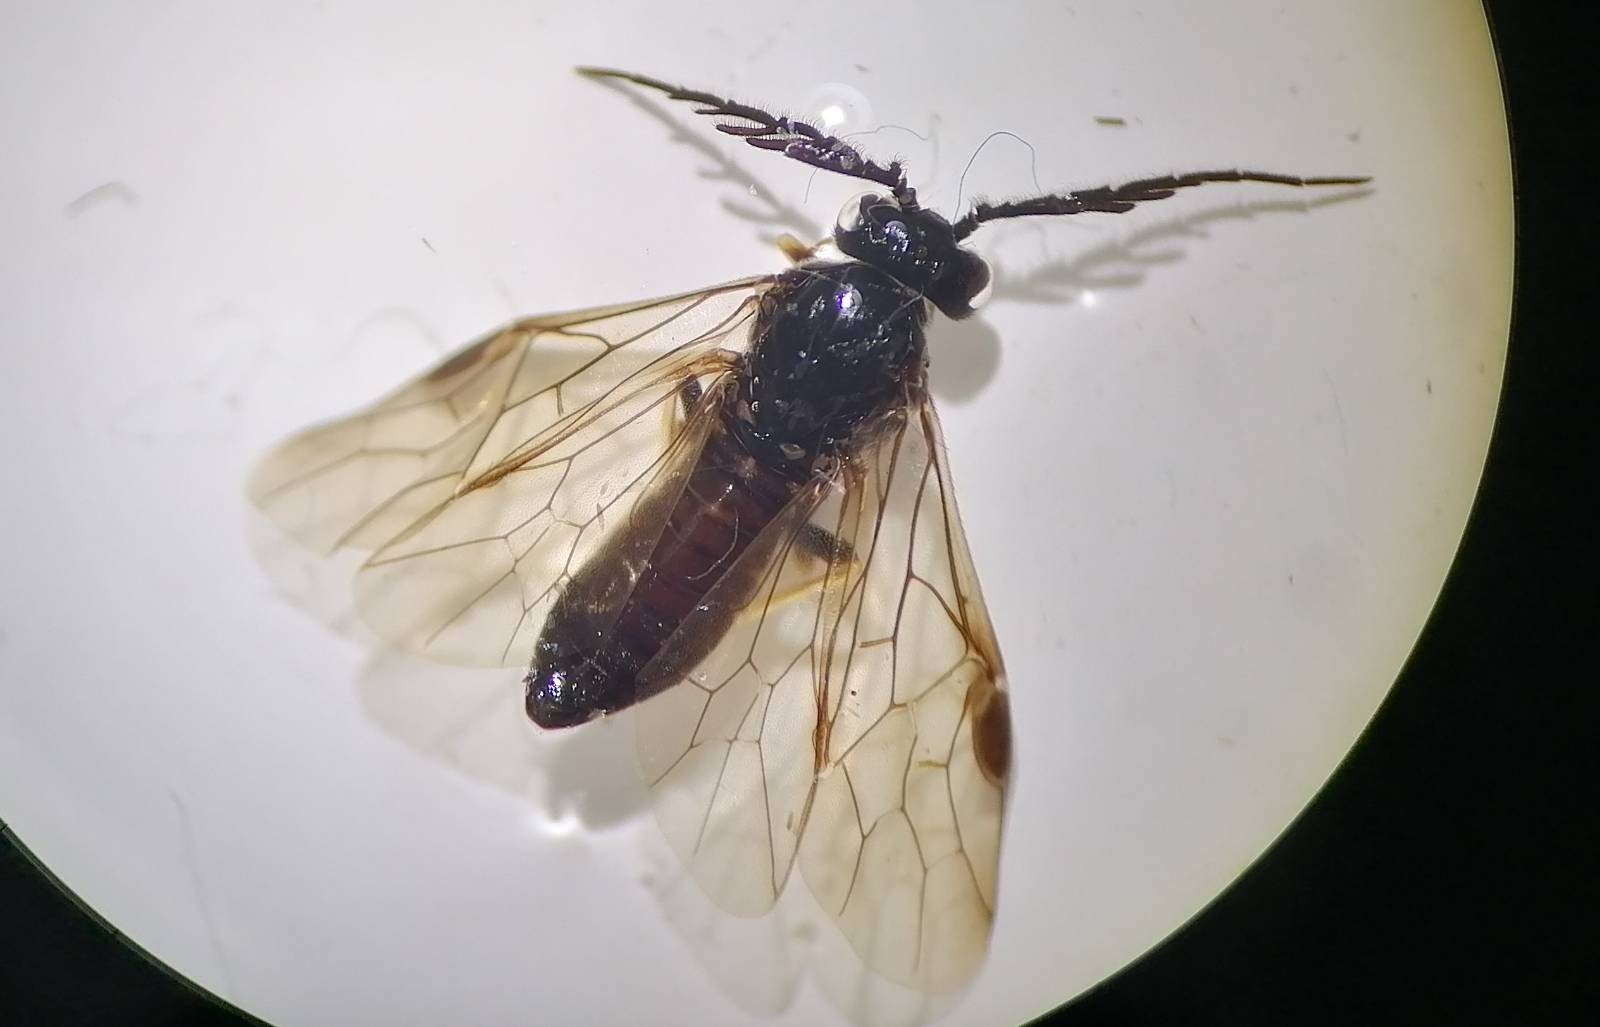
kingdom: Animalia
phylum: Arthropoda
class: Insecta
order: Hymenoptera
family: Tenthredinidae
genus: Cladius
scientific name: Cladius pectinicornis
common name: Sawfly
